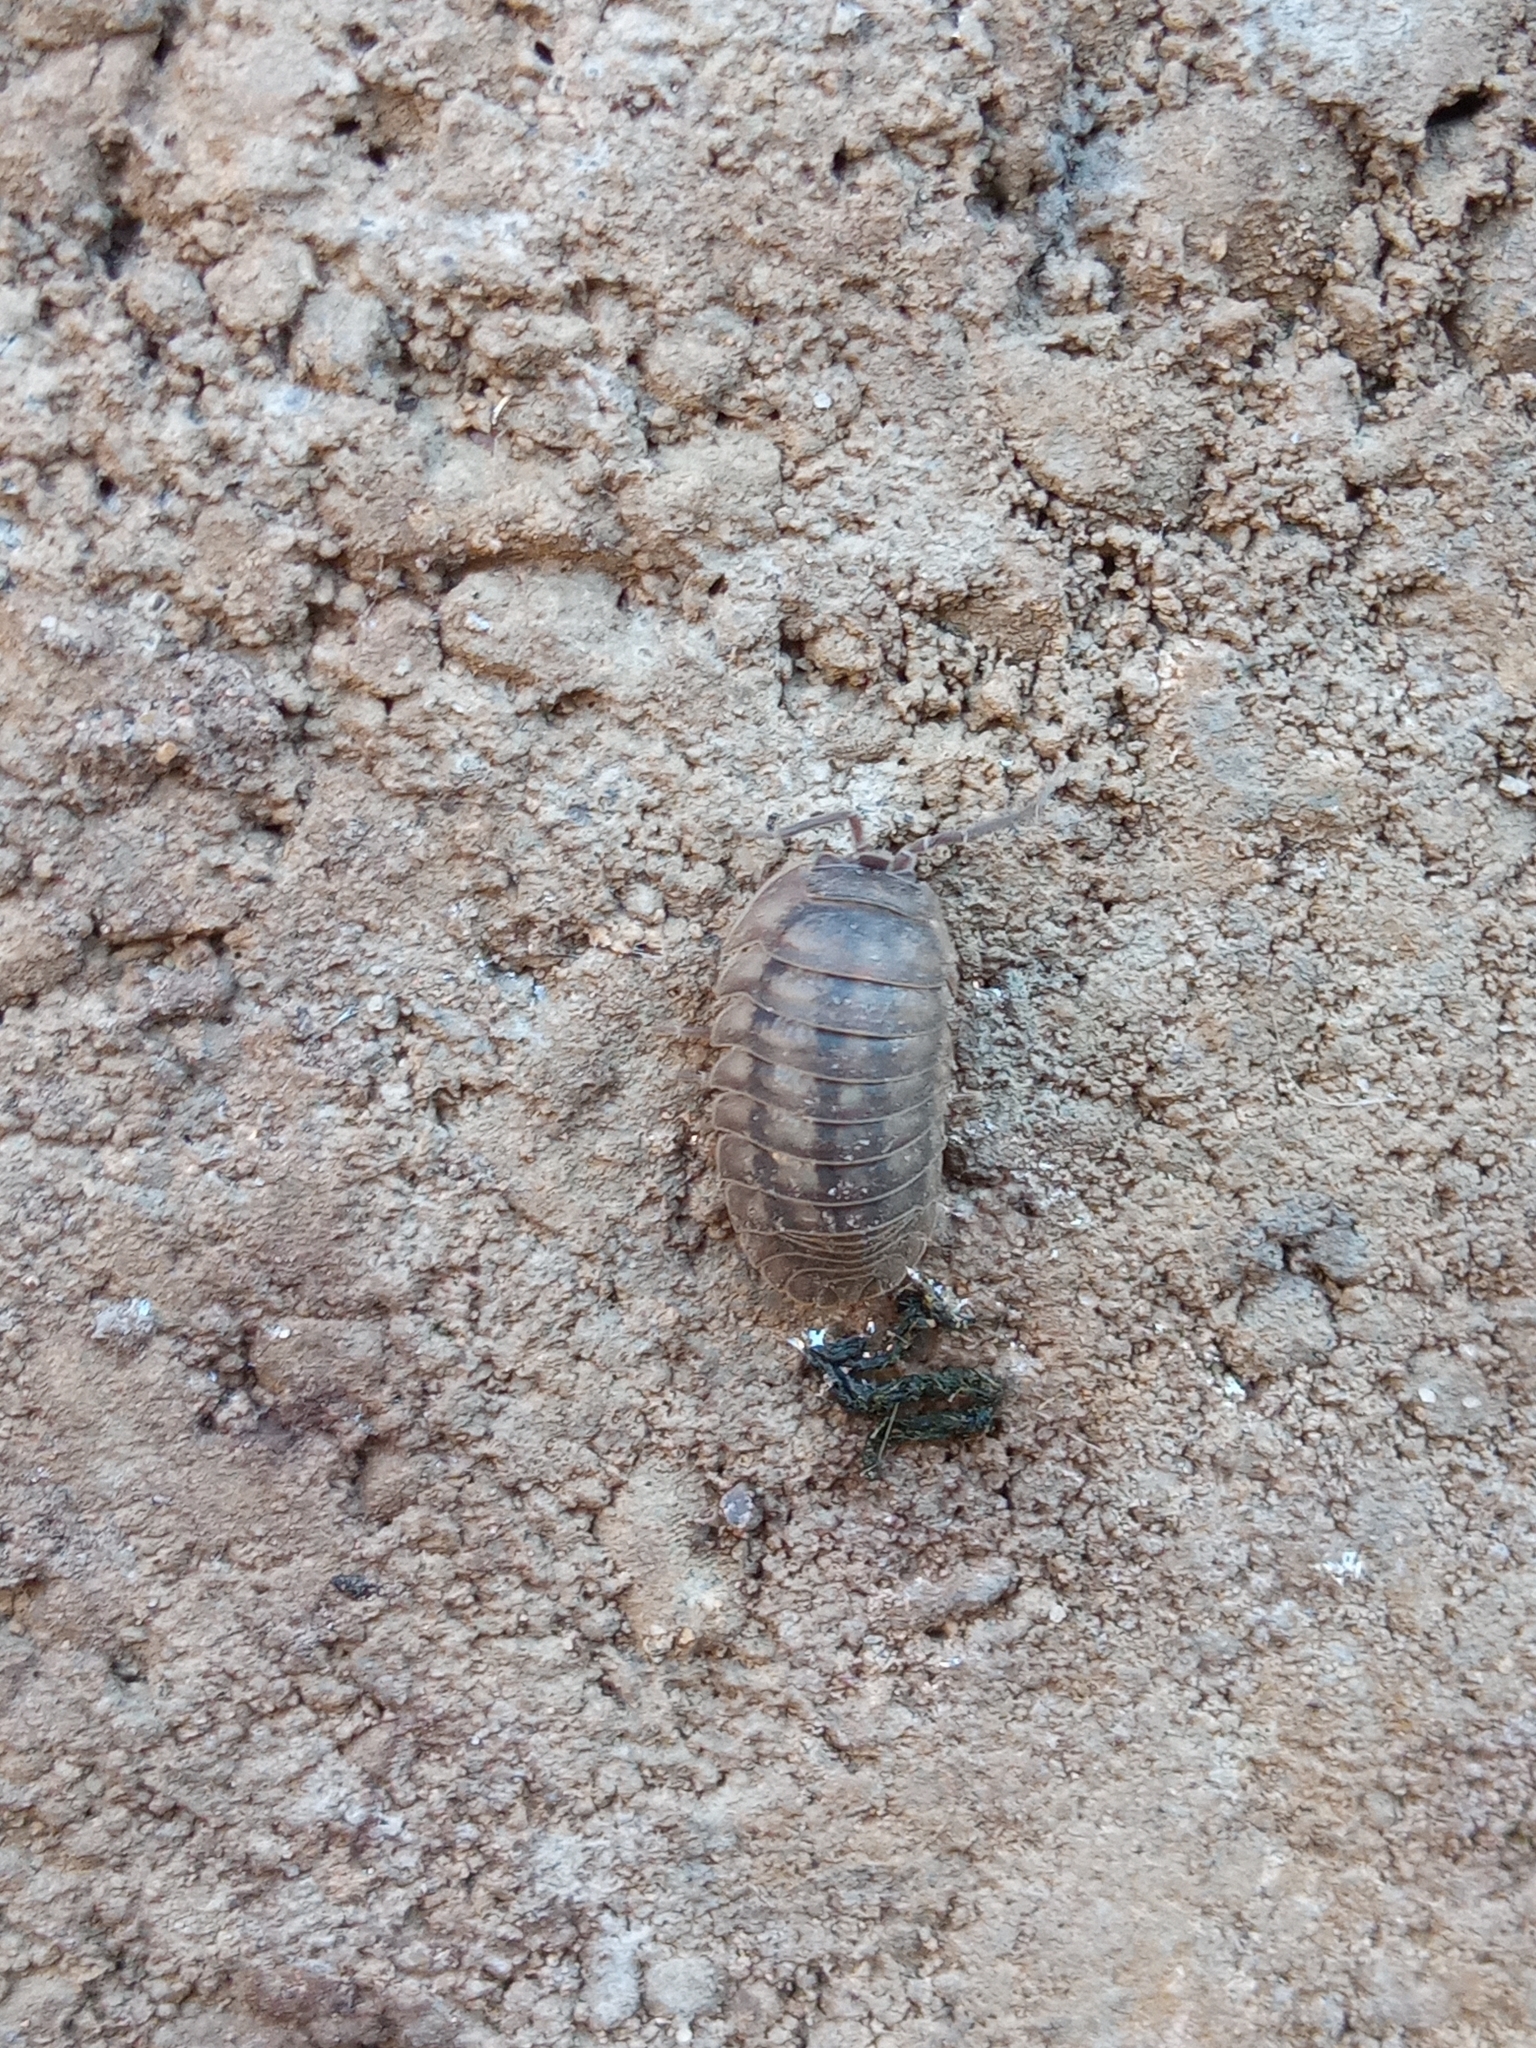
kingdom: Animalia
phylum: Arthropoda
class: Malacostraca
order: Isopoda
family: Armadillidiidae
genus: Armadillidium
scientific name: Armadillidium nasatum
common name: Isopod
